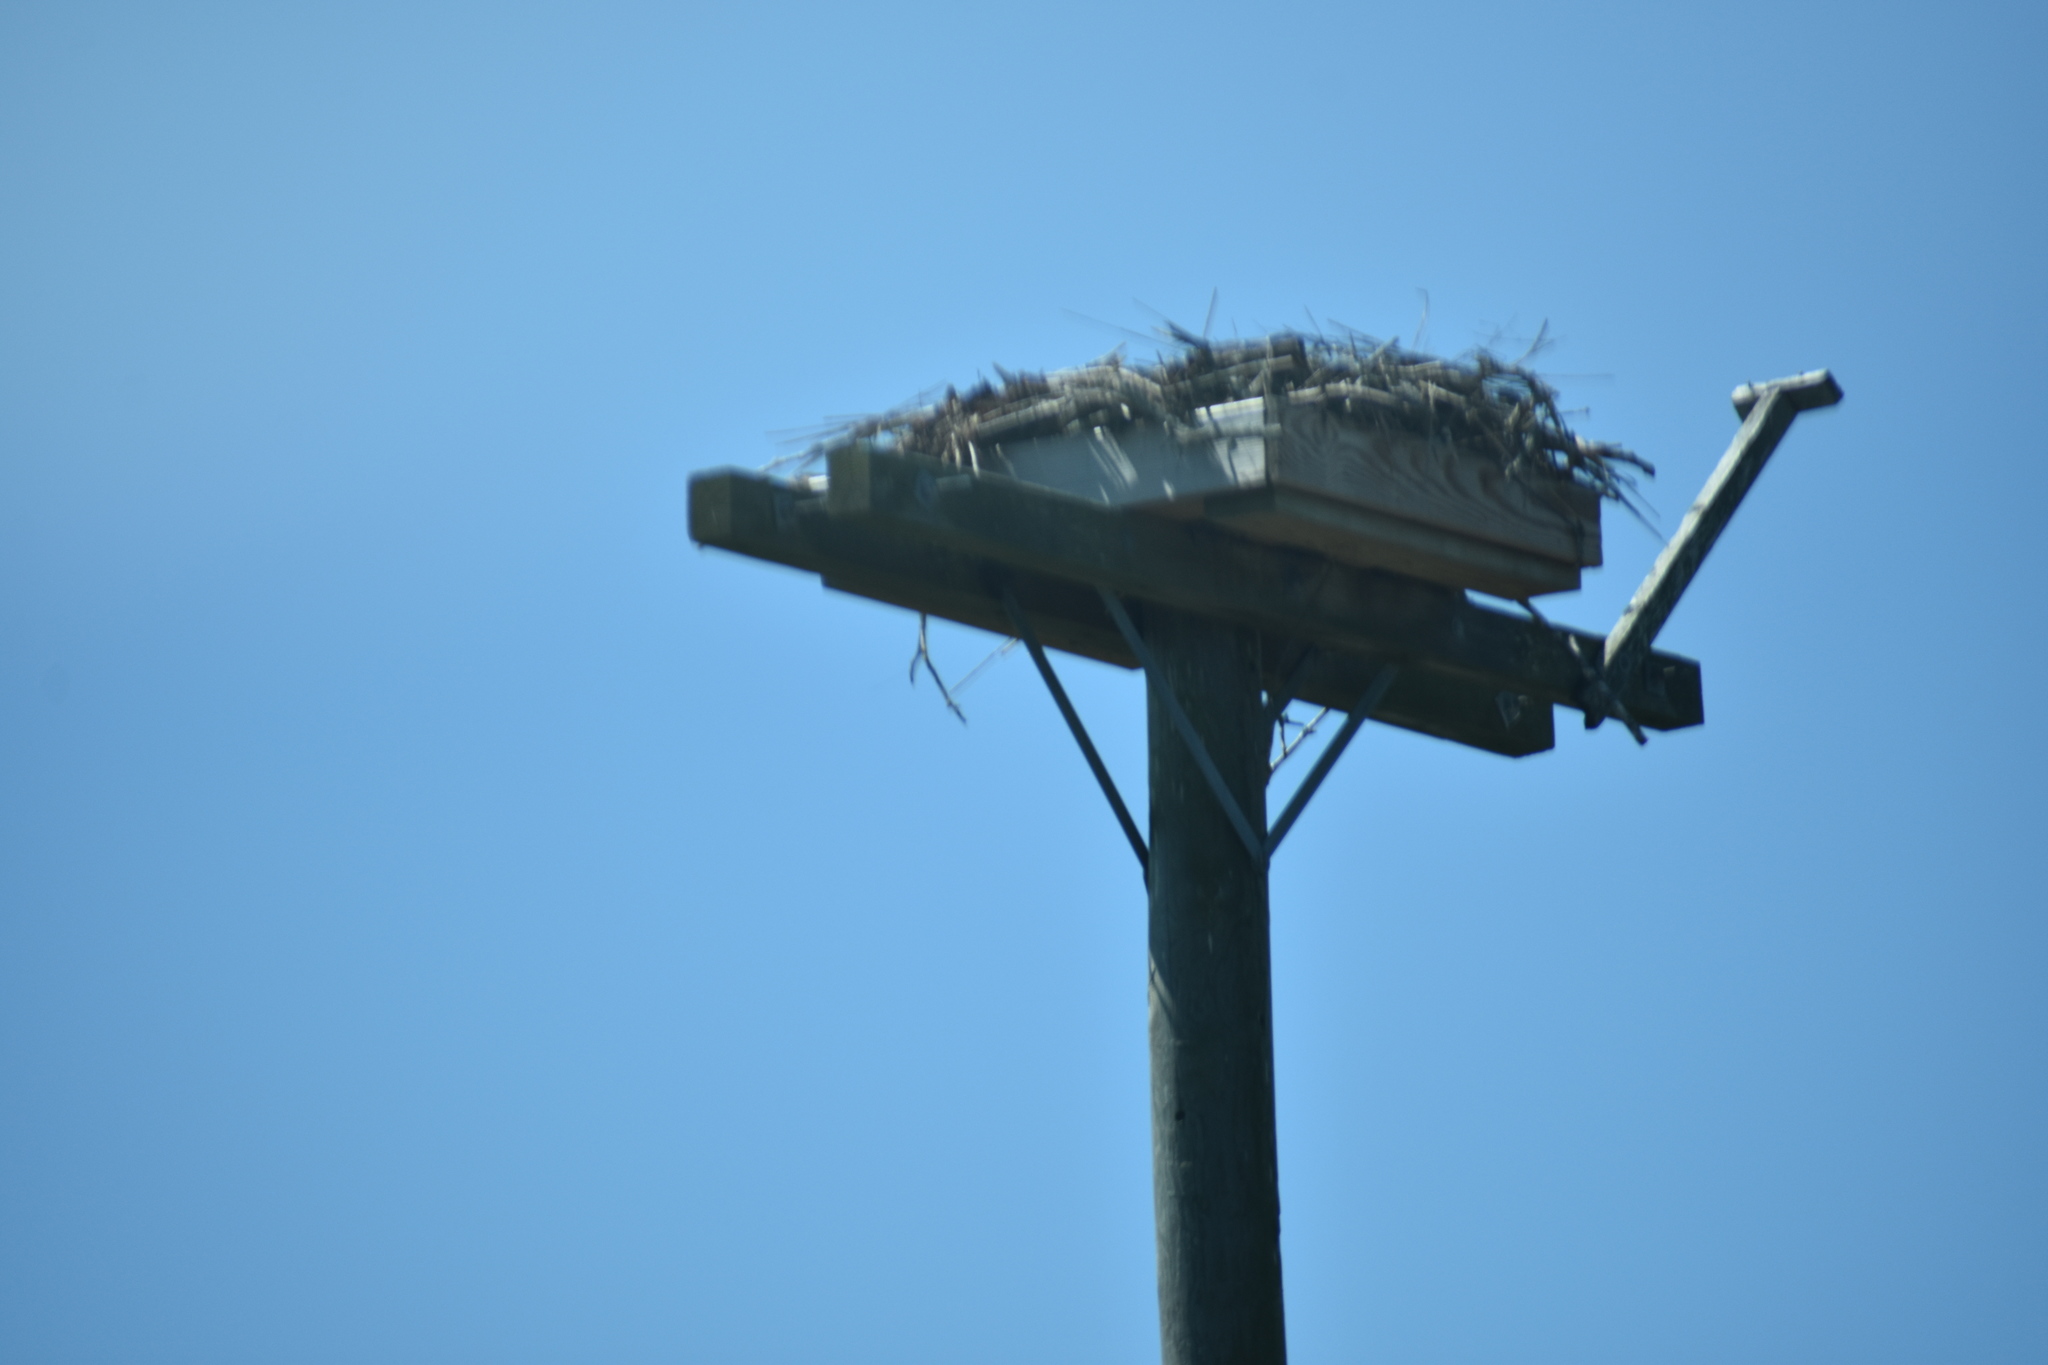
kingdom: Animalia
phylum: Chordata
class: Aves
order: Accipitriformes
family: Pandionidae
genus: Pandion
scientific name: Pandion haliaetus
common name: Osprey
